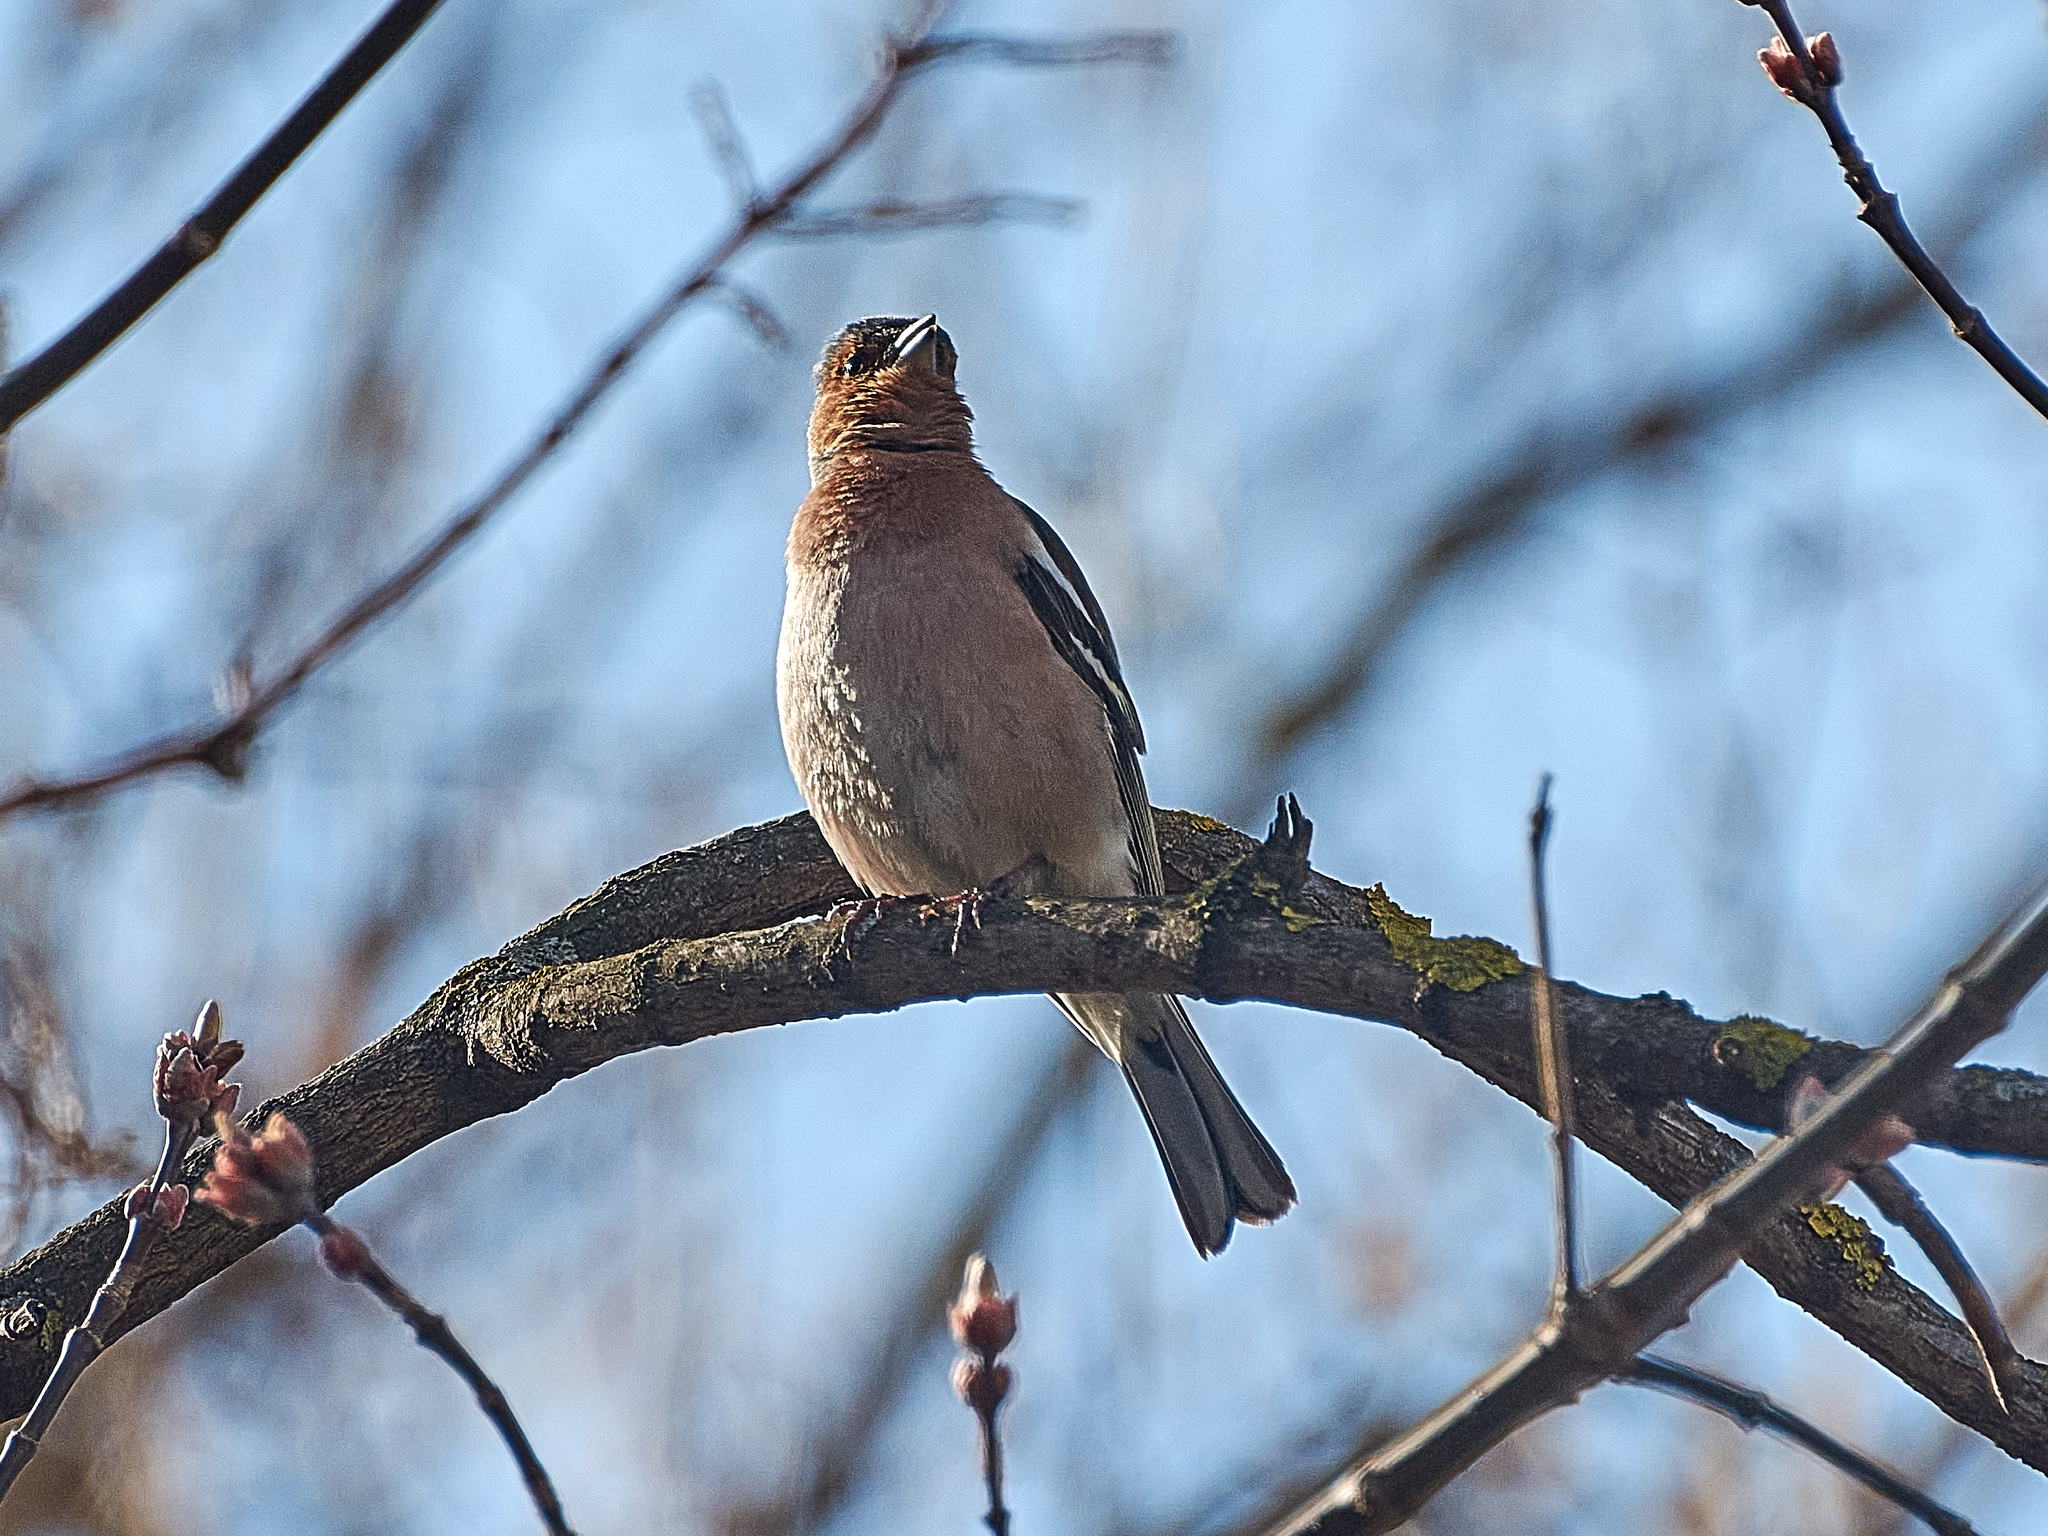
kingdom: Animalia
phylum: Chordata
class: Aves
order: Passeriformes
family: Fringillidae
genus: Fringilla
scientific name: Fringilla coelebs
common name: Common chaffinch
